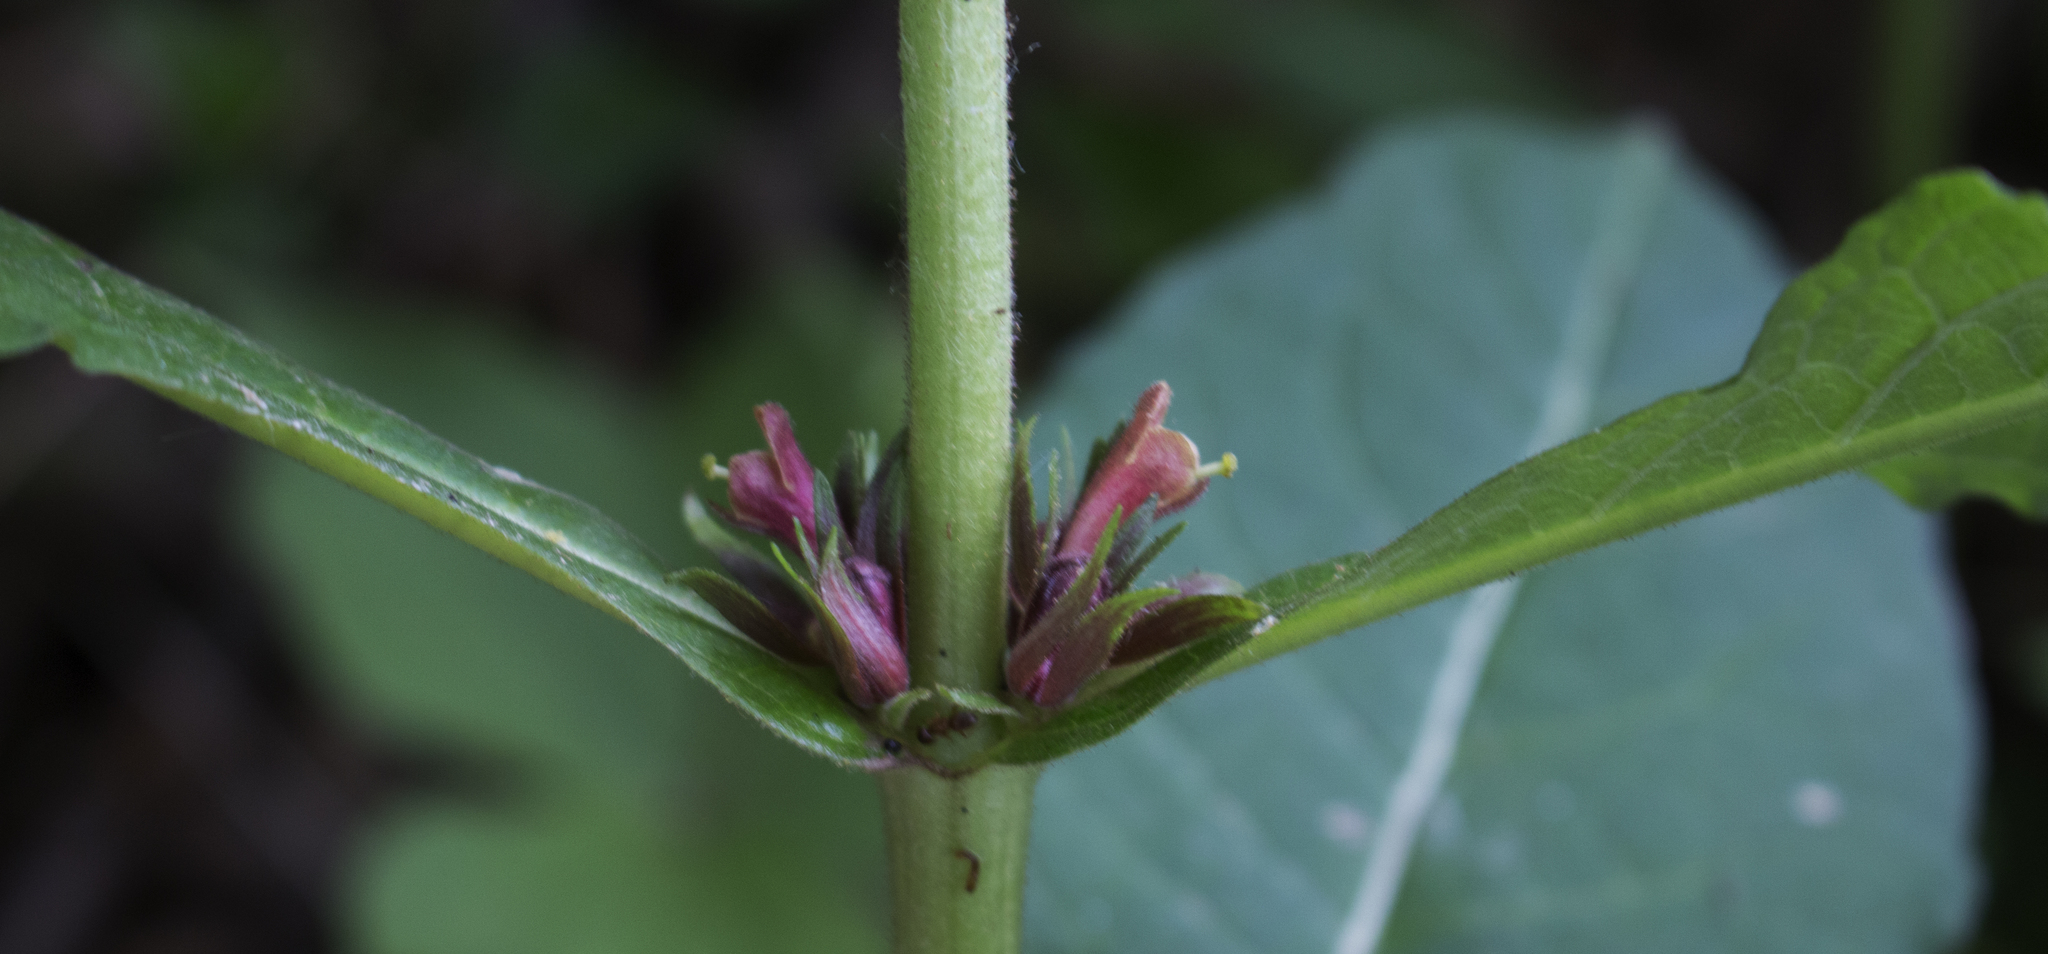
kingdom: Plantae
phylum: Tracheophyta
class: Magnoliopsida
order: Dipsacales
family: Caprifoliaceae
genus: Triosteum
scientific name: Triosteum aurantiacum
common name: Coffee tinker's-weed
